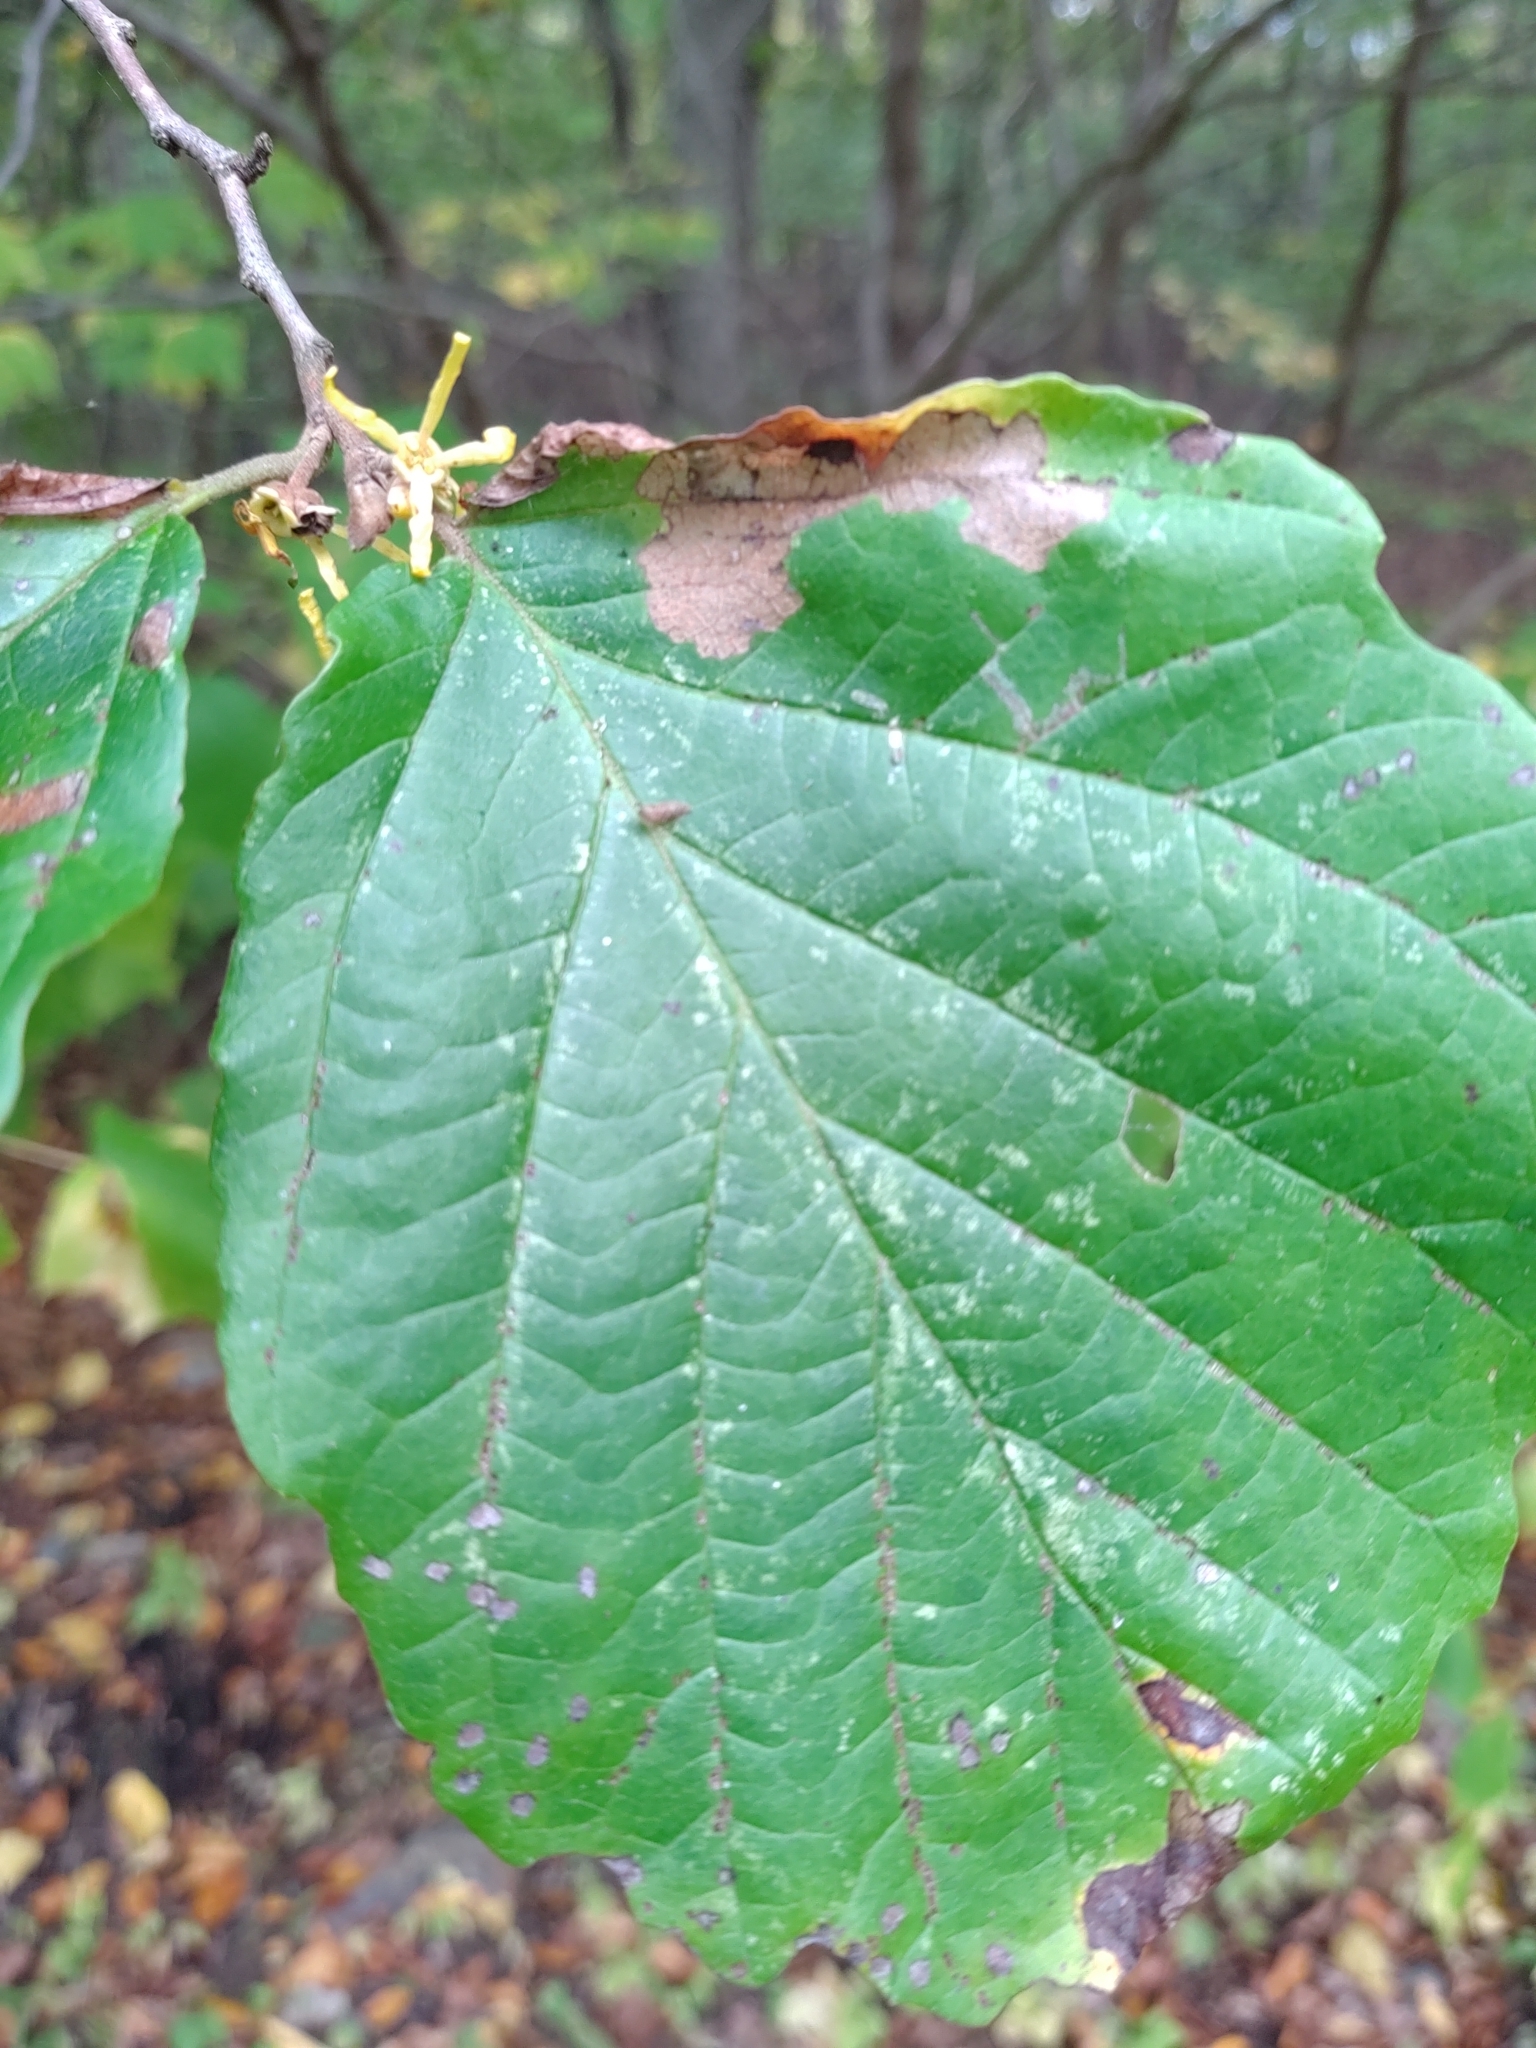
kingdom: Plantae
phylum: Tracheophyta
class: Magnoliopsida
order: Saxifragales
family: Hamamelidaceae
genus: Hamamelis
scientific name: Hamamelis virginiana
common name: Witch-hazel
